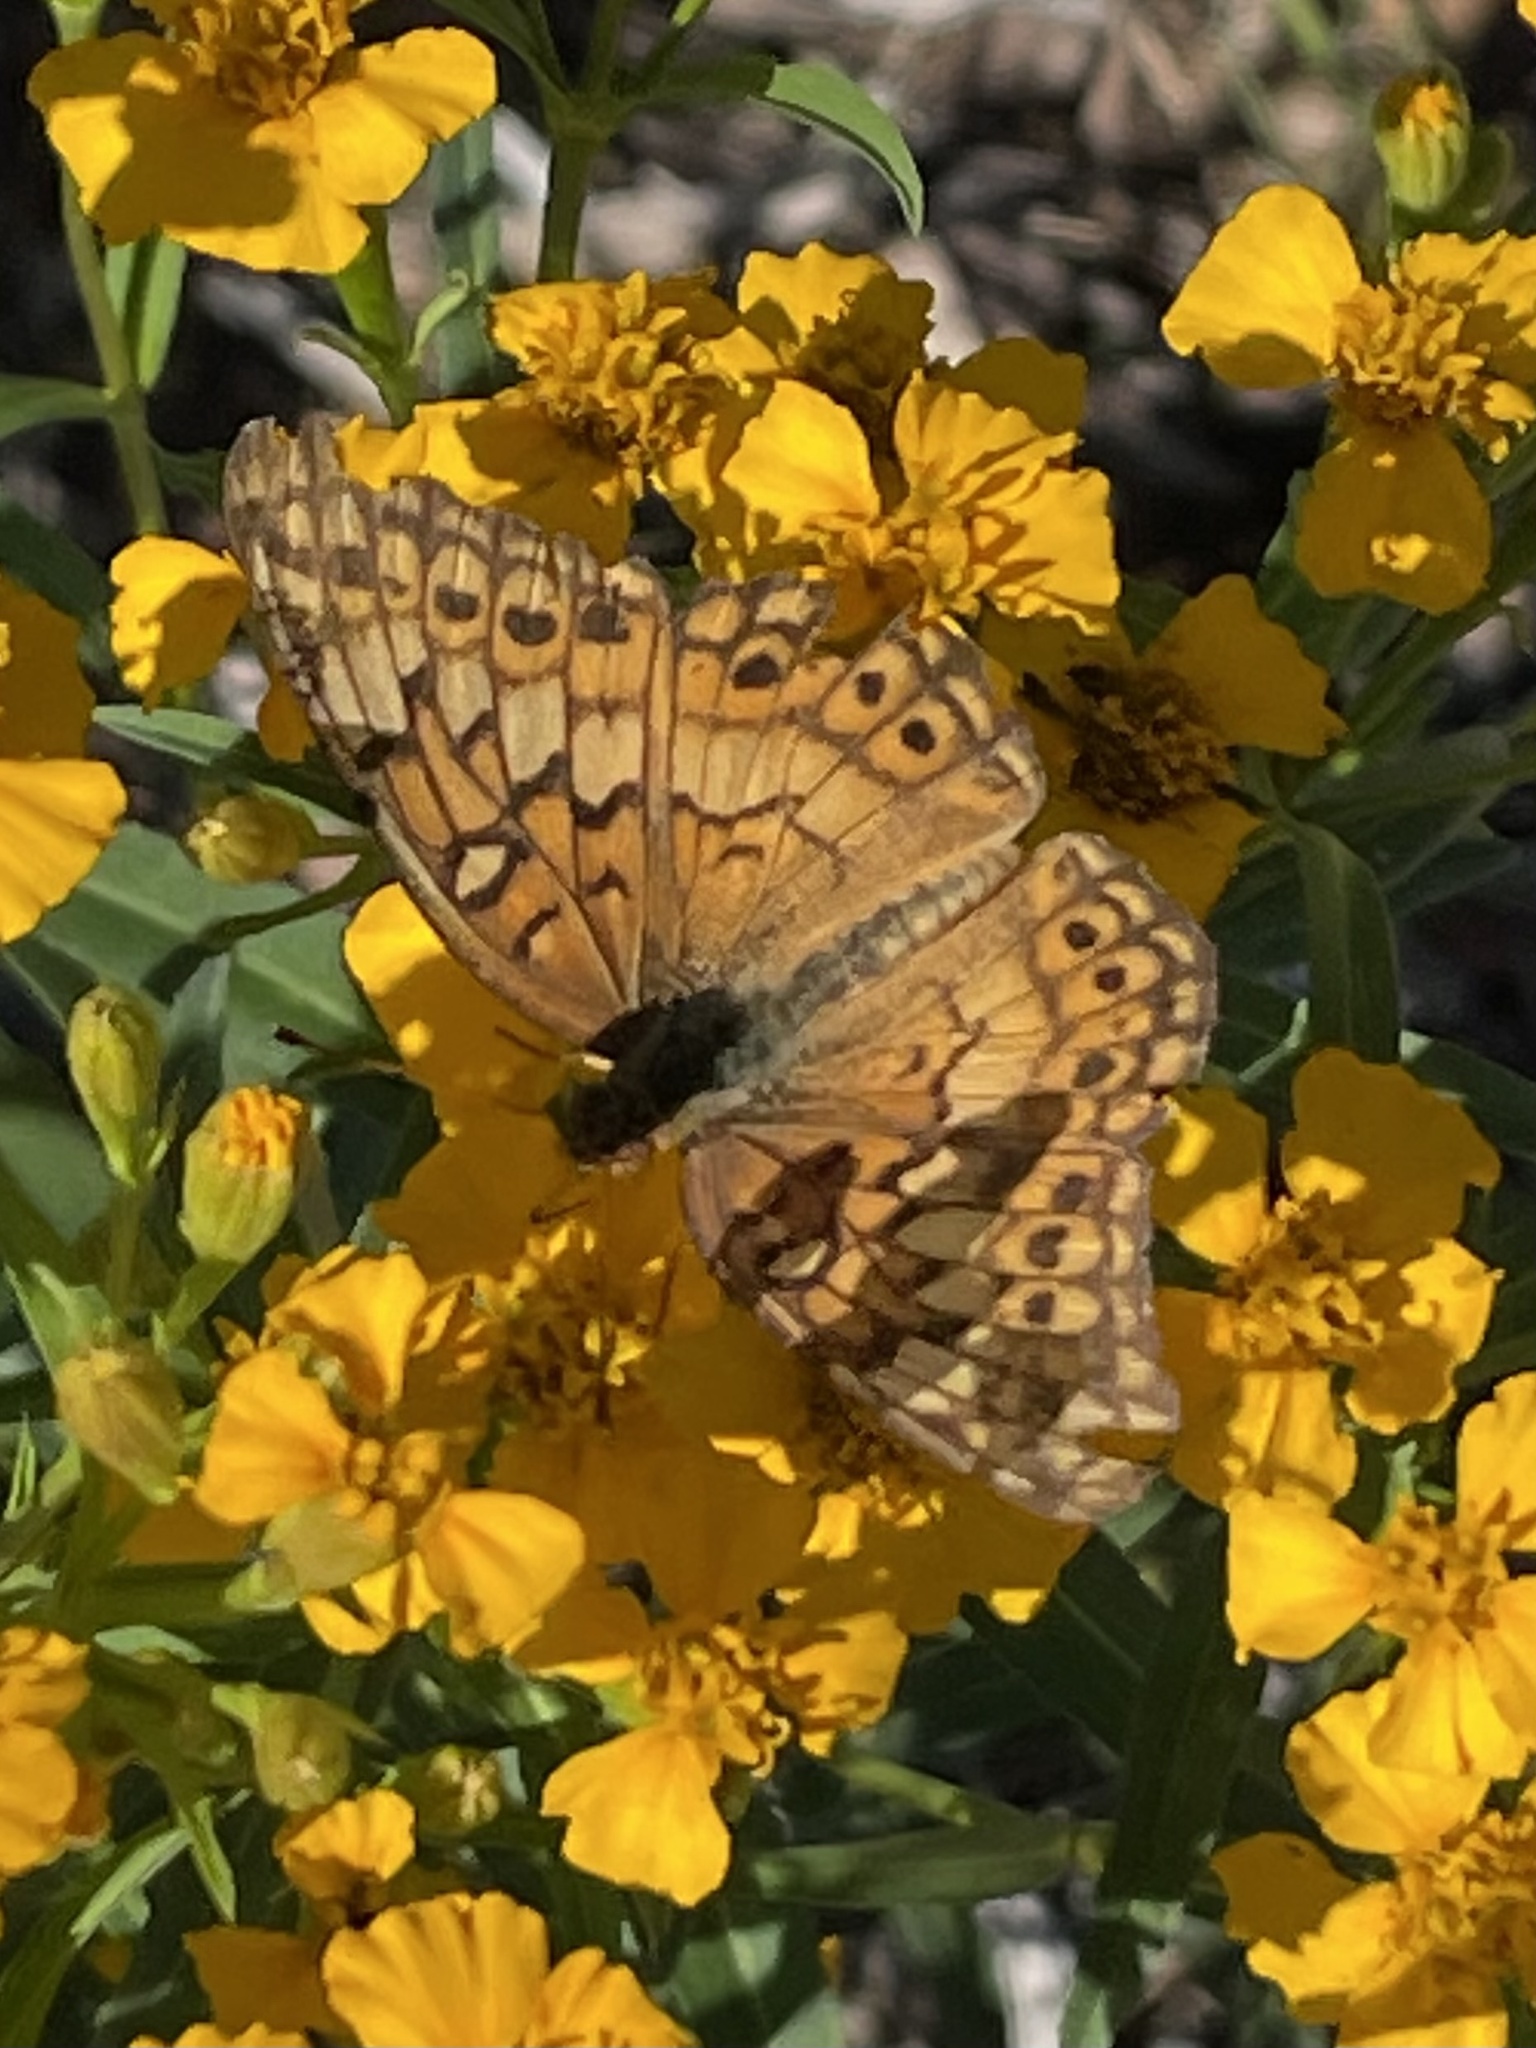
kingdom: Animalia
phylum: Arthropoda
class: Insecta
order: Lepidoptera
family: Nymphalidae
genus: Euptoieta
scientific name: Euptoieta claudia
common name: Variegated fritillary
